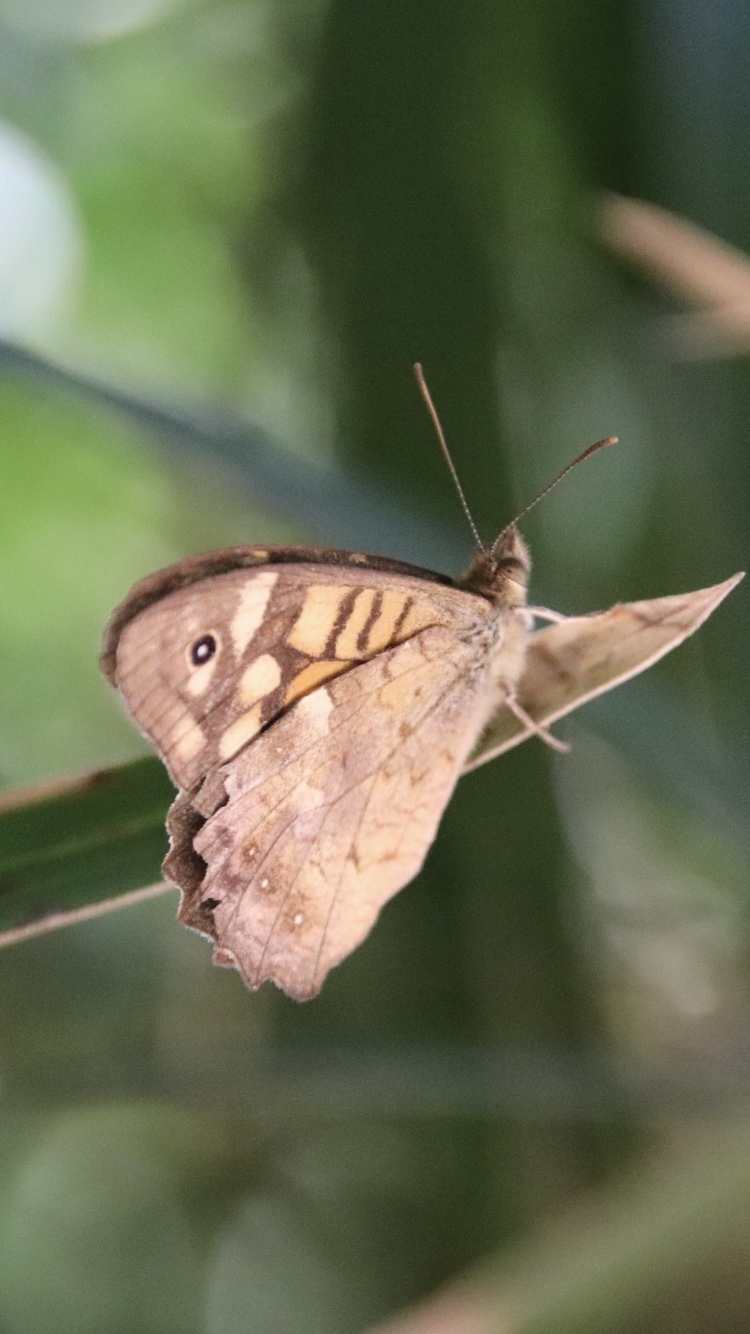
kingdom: Animalia
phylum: Arthropoda
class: Insecta
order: Lepidoptera
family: Nymphalidae
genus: Pararge
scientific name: Pararge aegeria
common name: Speckled wood
